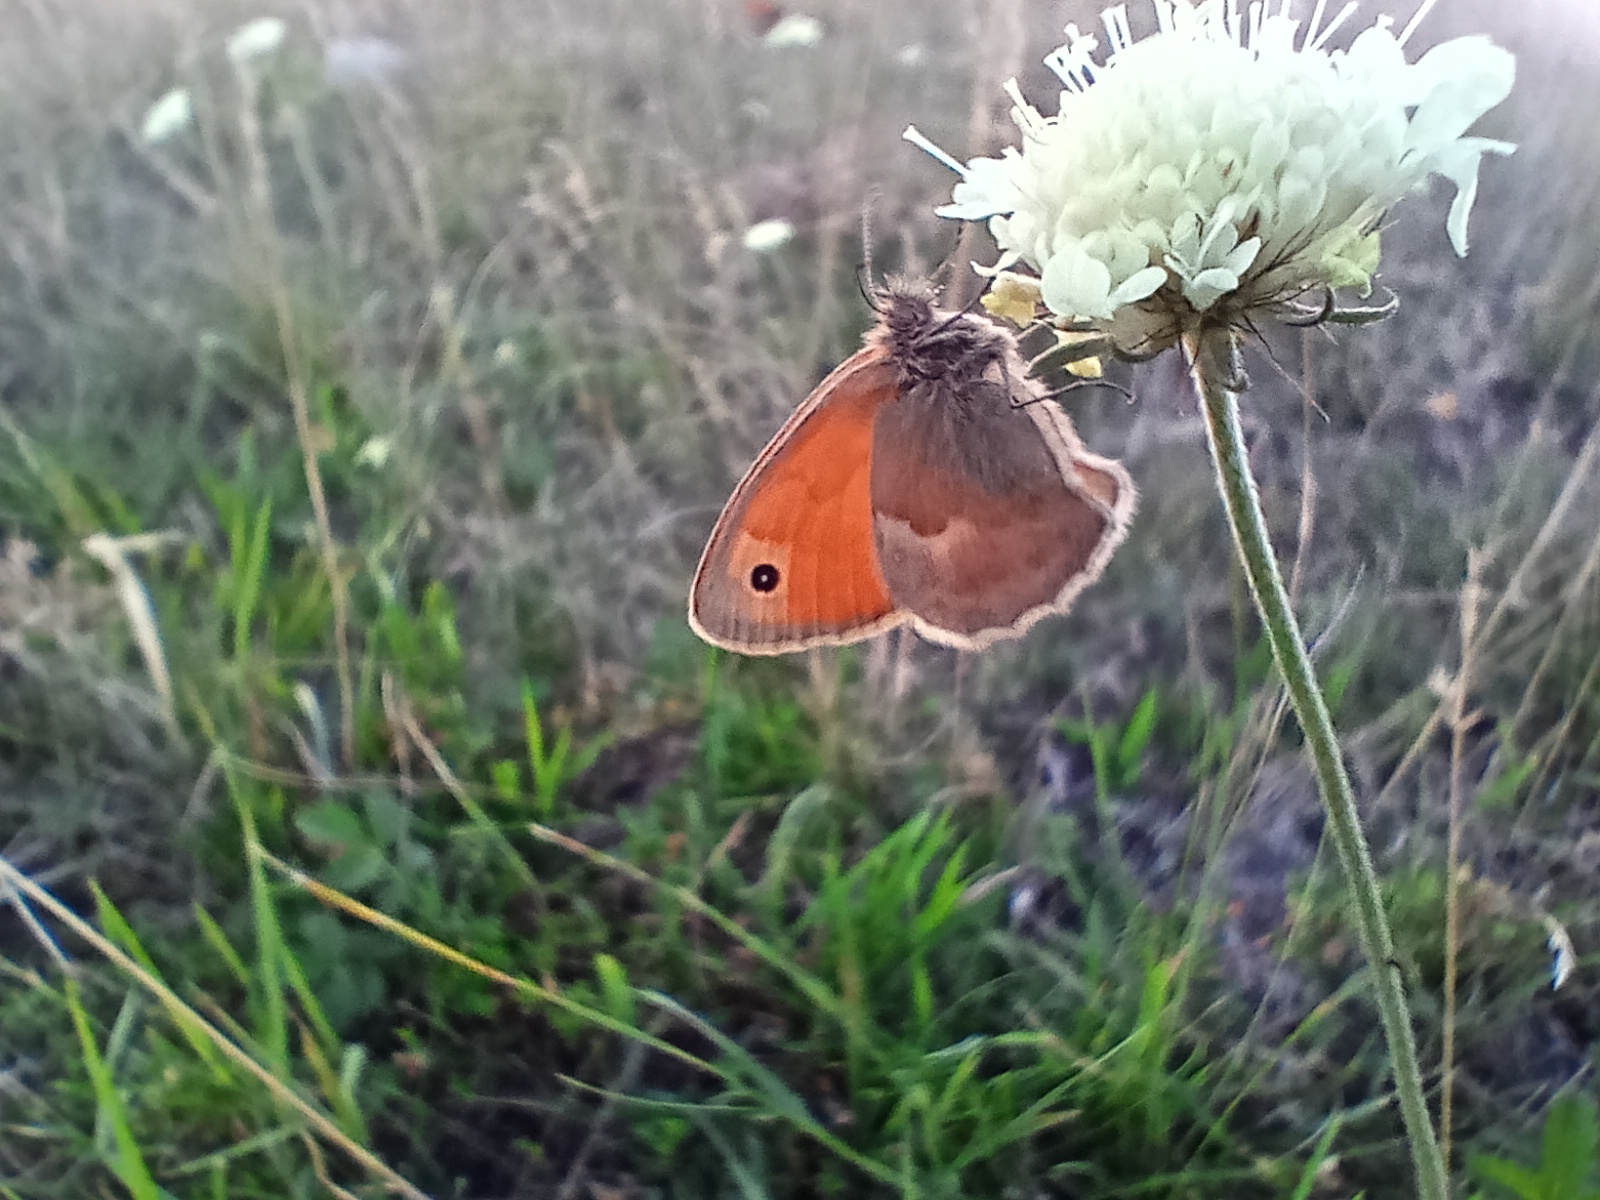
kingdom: Animalia
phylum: Arthropoda
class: Insecta
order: Lepidoptera
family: Nymphalidae
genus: Coenonympha
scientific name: Coenonympha pamphilus
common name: Small heath
